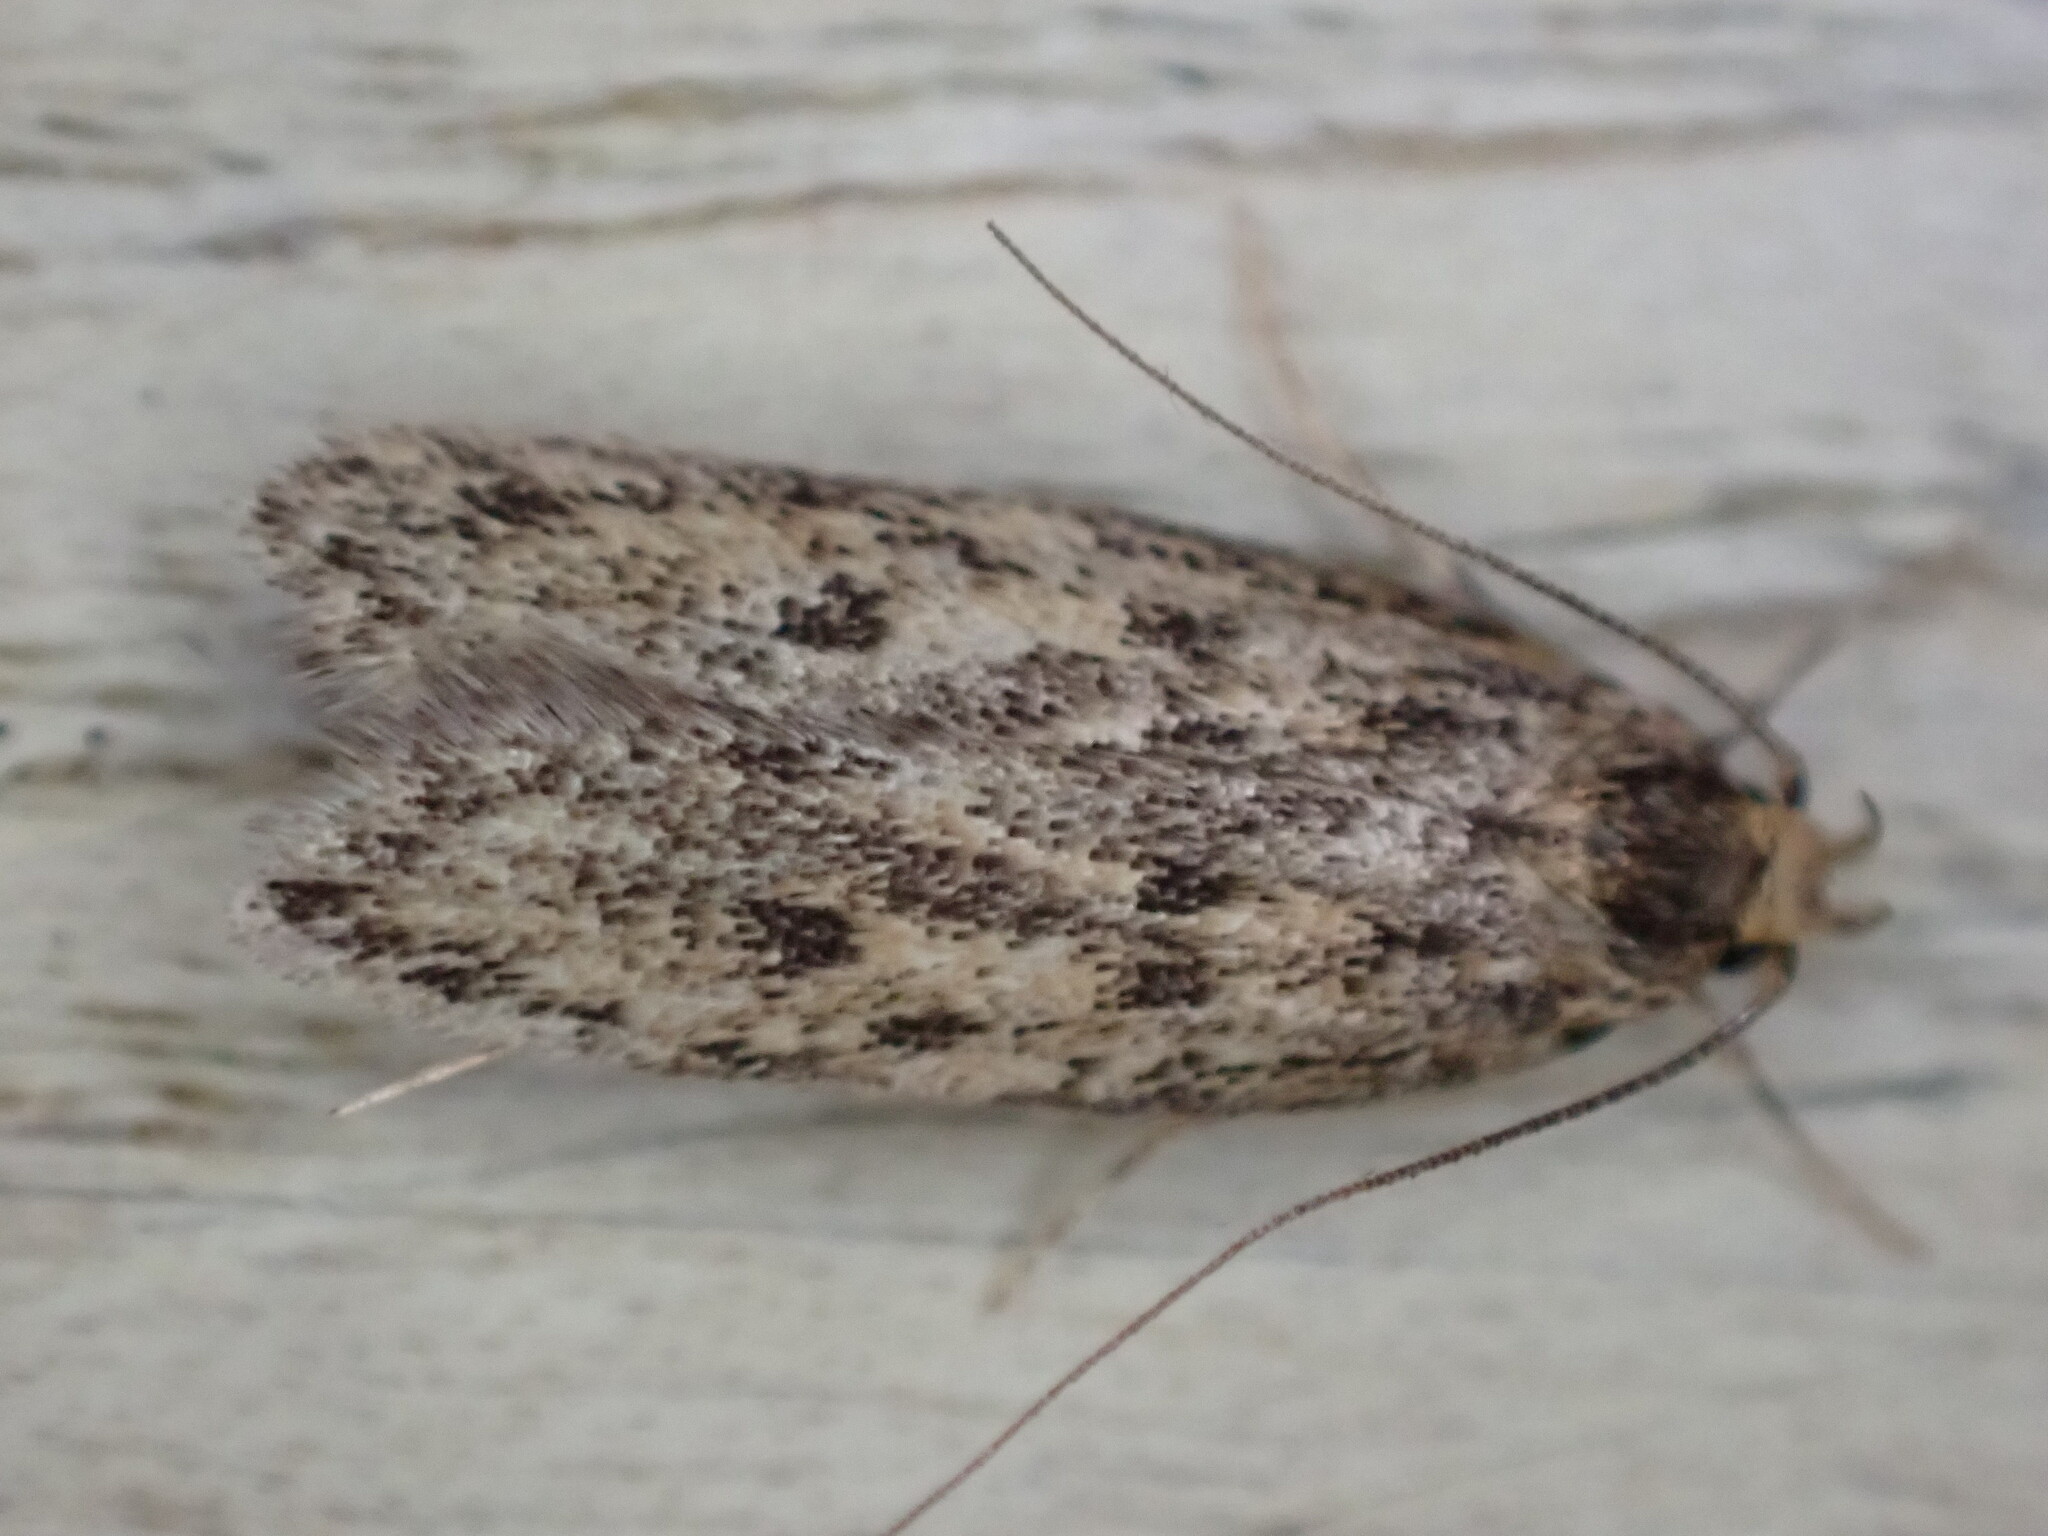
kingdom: Animalia
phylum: Arthropoda
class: Insecta
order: Lepidoptera
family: Oecophoridae
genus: Hofmannophila
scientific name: Hofmannophila pseudospretella
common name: Brown house moth
